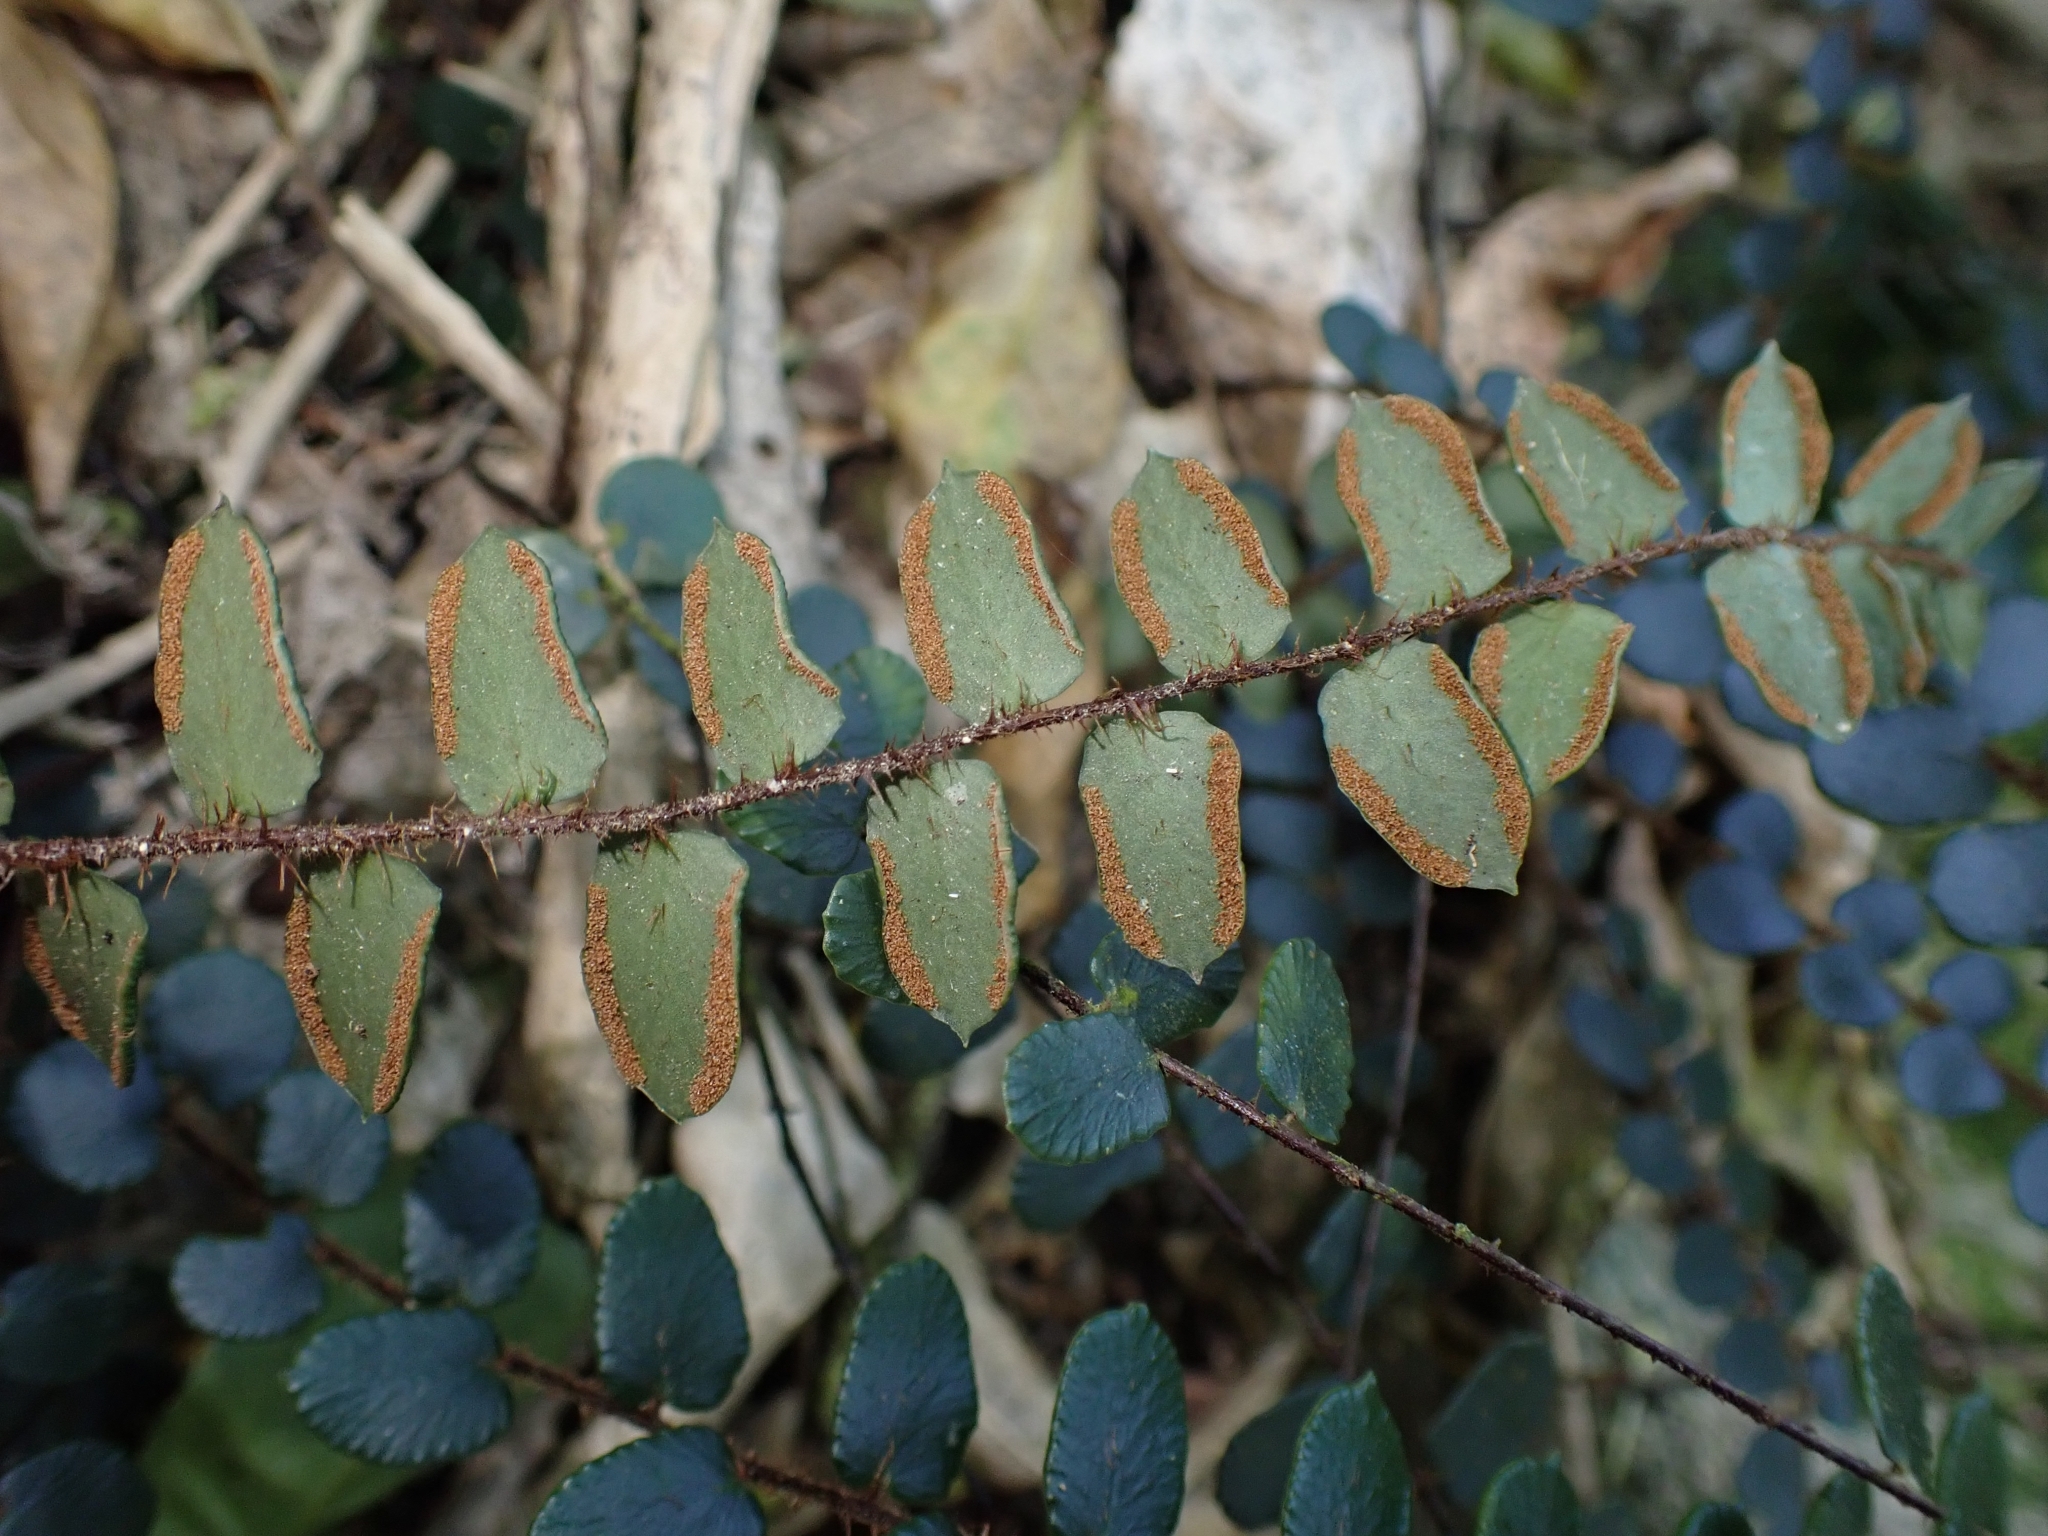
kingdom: Plantae
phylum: Tracheophyta
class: Polypodiopsida
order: Polypodiales
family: Pteridaceae
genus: Pellaea
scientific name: Pellaea rotundifolia
